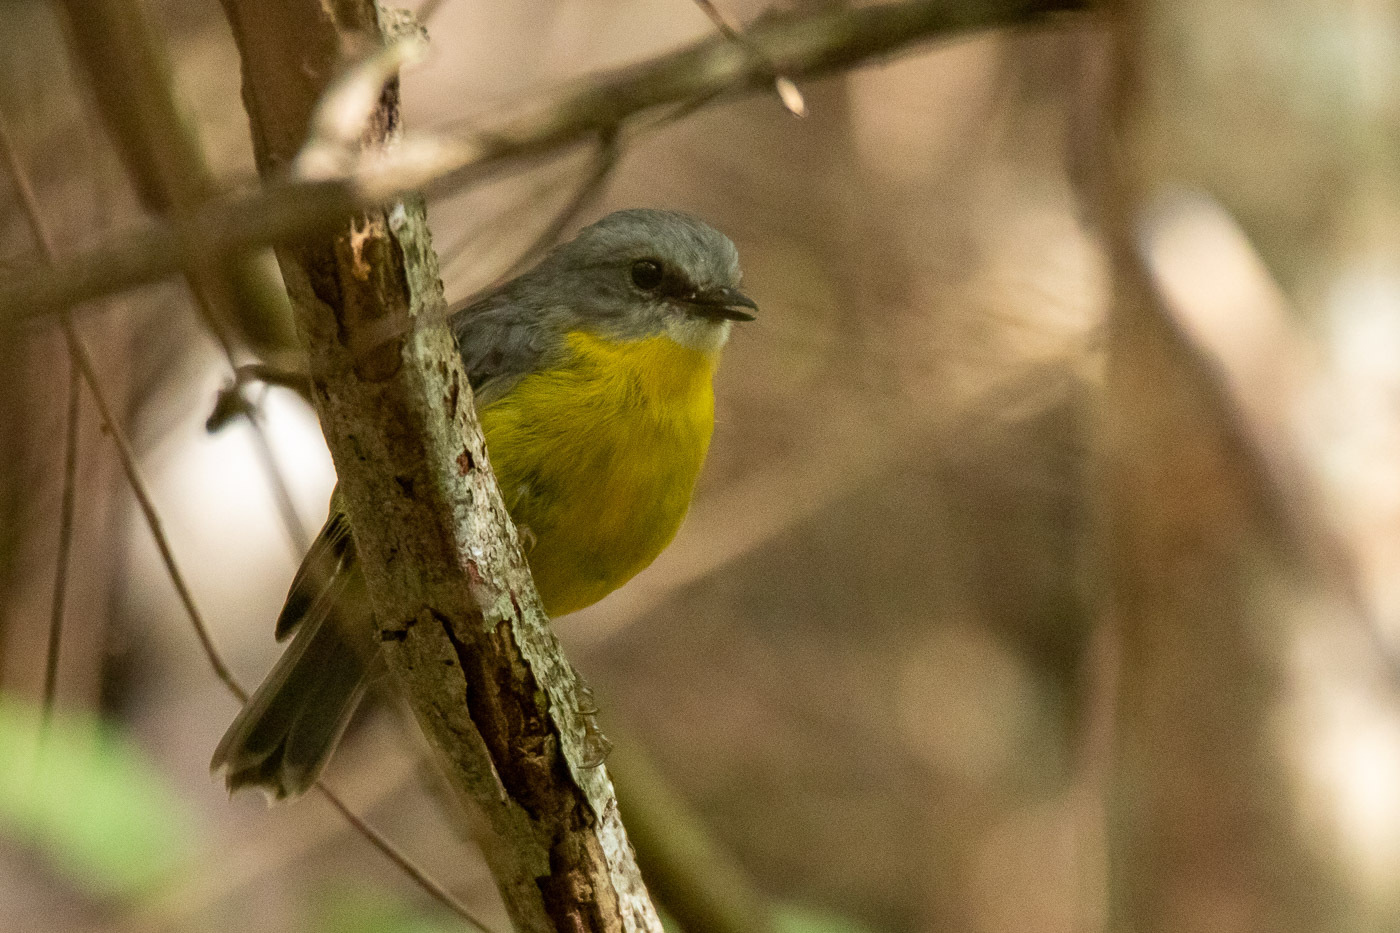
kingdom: Animalia
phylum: Chordata
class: Aves
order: Passeriformes
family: Petroicidae
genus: Eopsaltria
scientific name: Eopsaltria australis
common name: Eastern yellow robin
